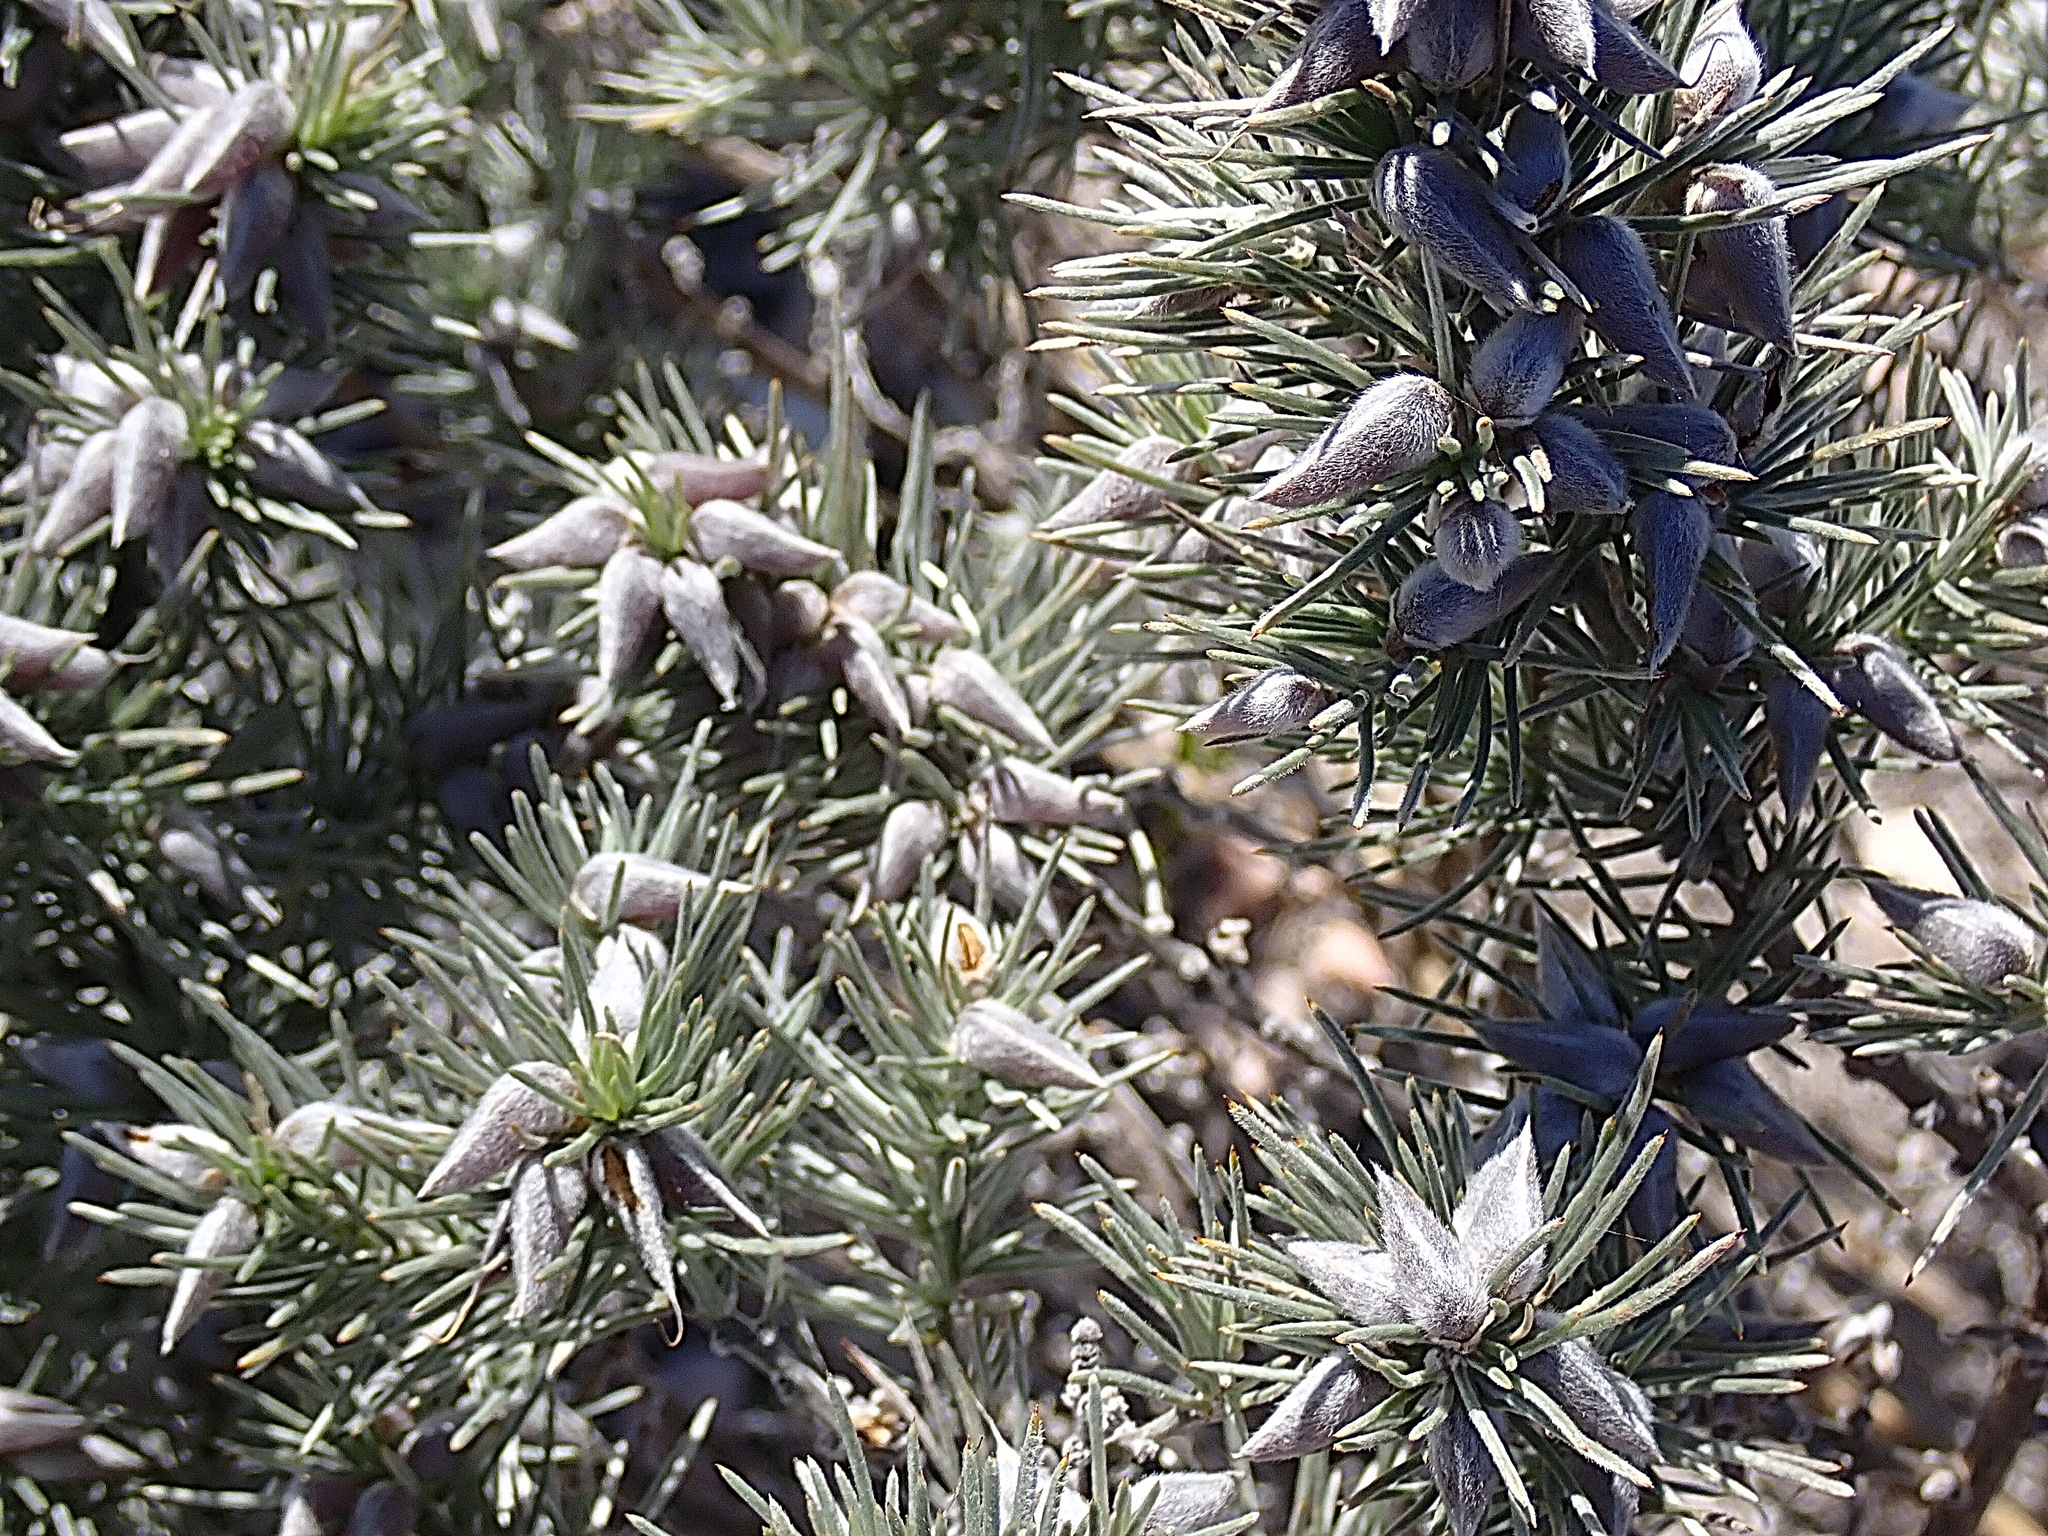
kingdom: Plantae
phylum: Tracheophyta
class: Magnoliopsida
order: Fabales
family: Fabaceae
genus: Aspalathus
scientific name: Aspalathus florifera
